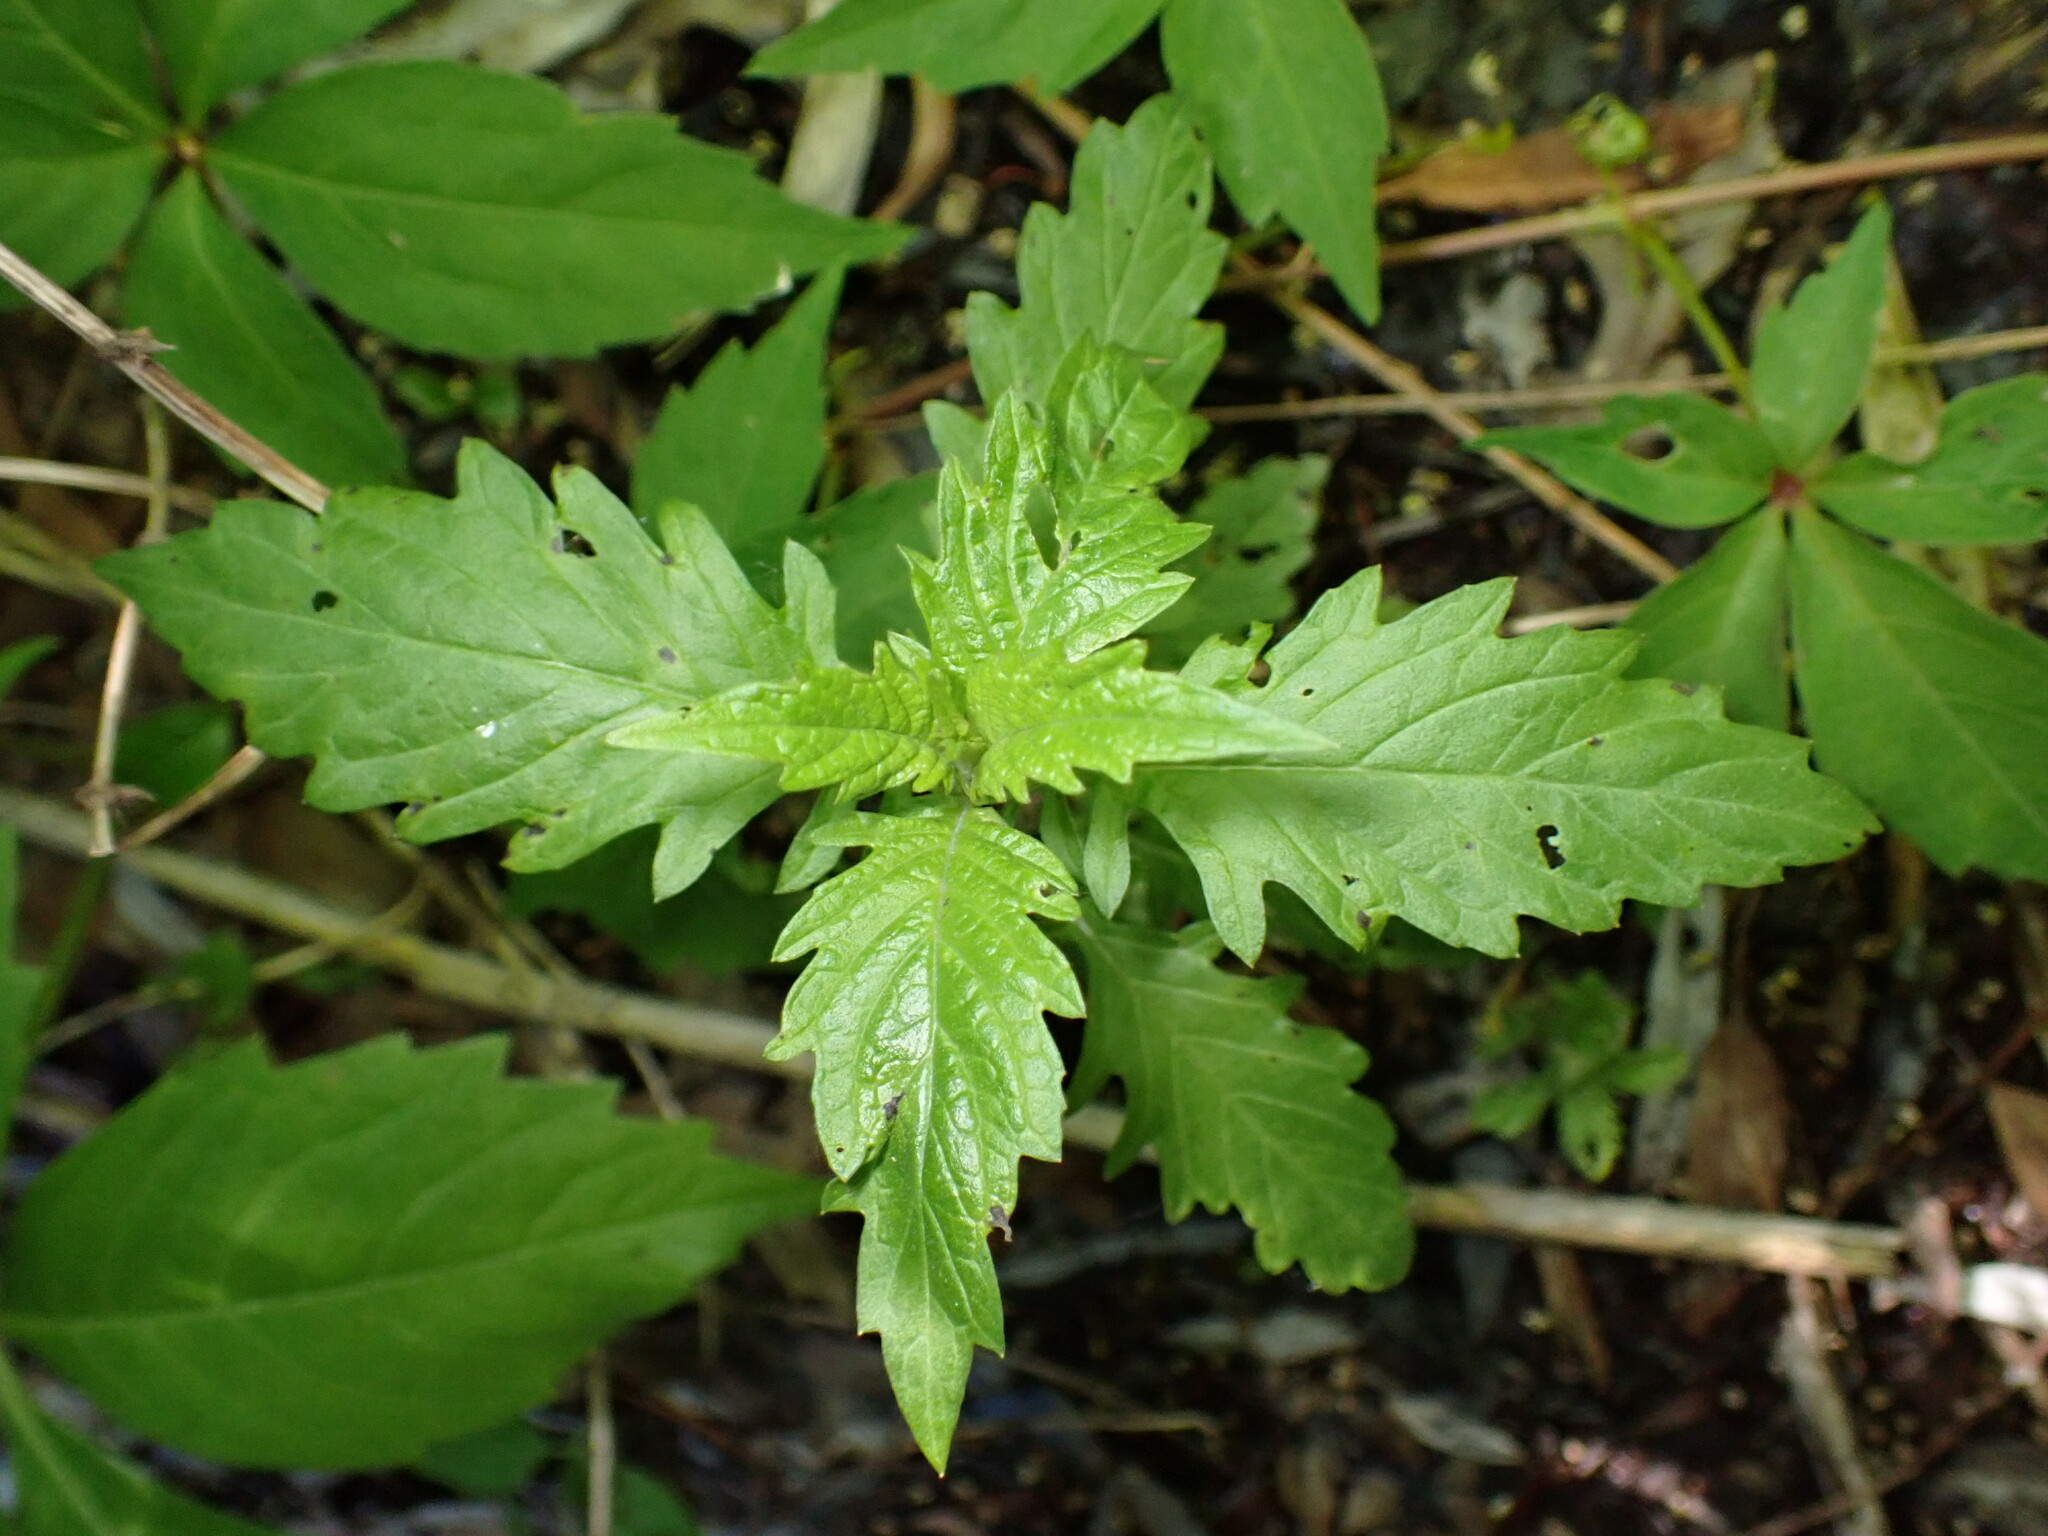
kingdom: Plantae
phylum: Tracheophyta
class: Magnoliopsida
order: Lamiales
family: Lamiaceae
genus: Lycopus
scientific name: Lycopus europaeus
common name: European bugleweed
